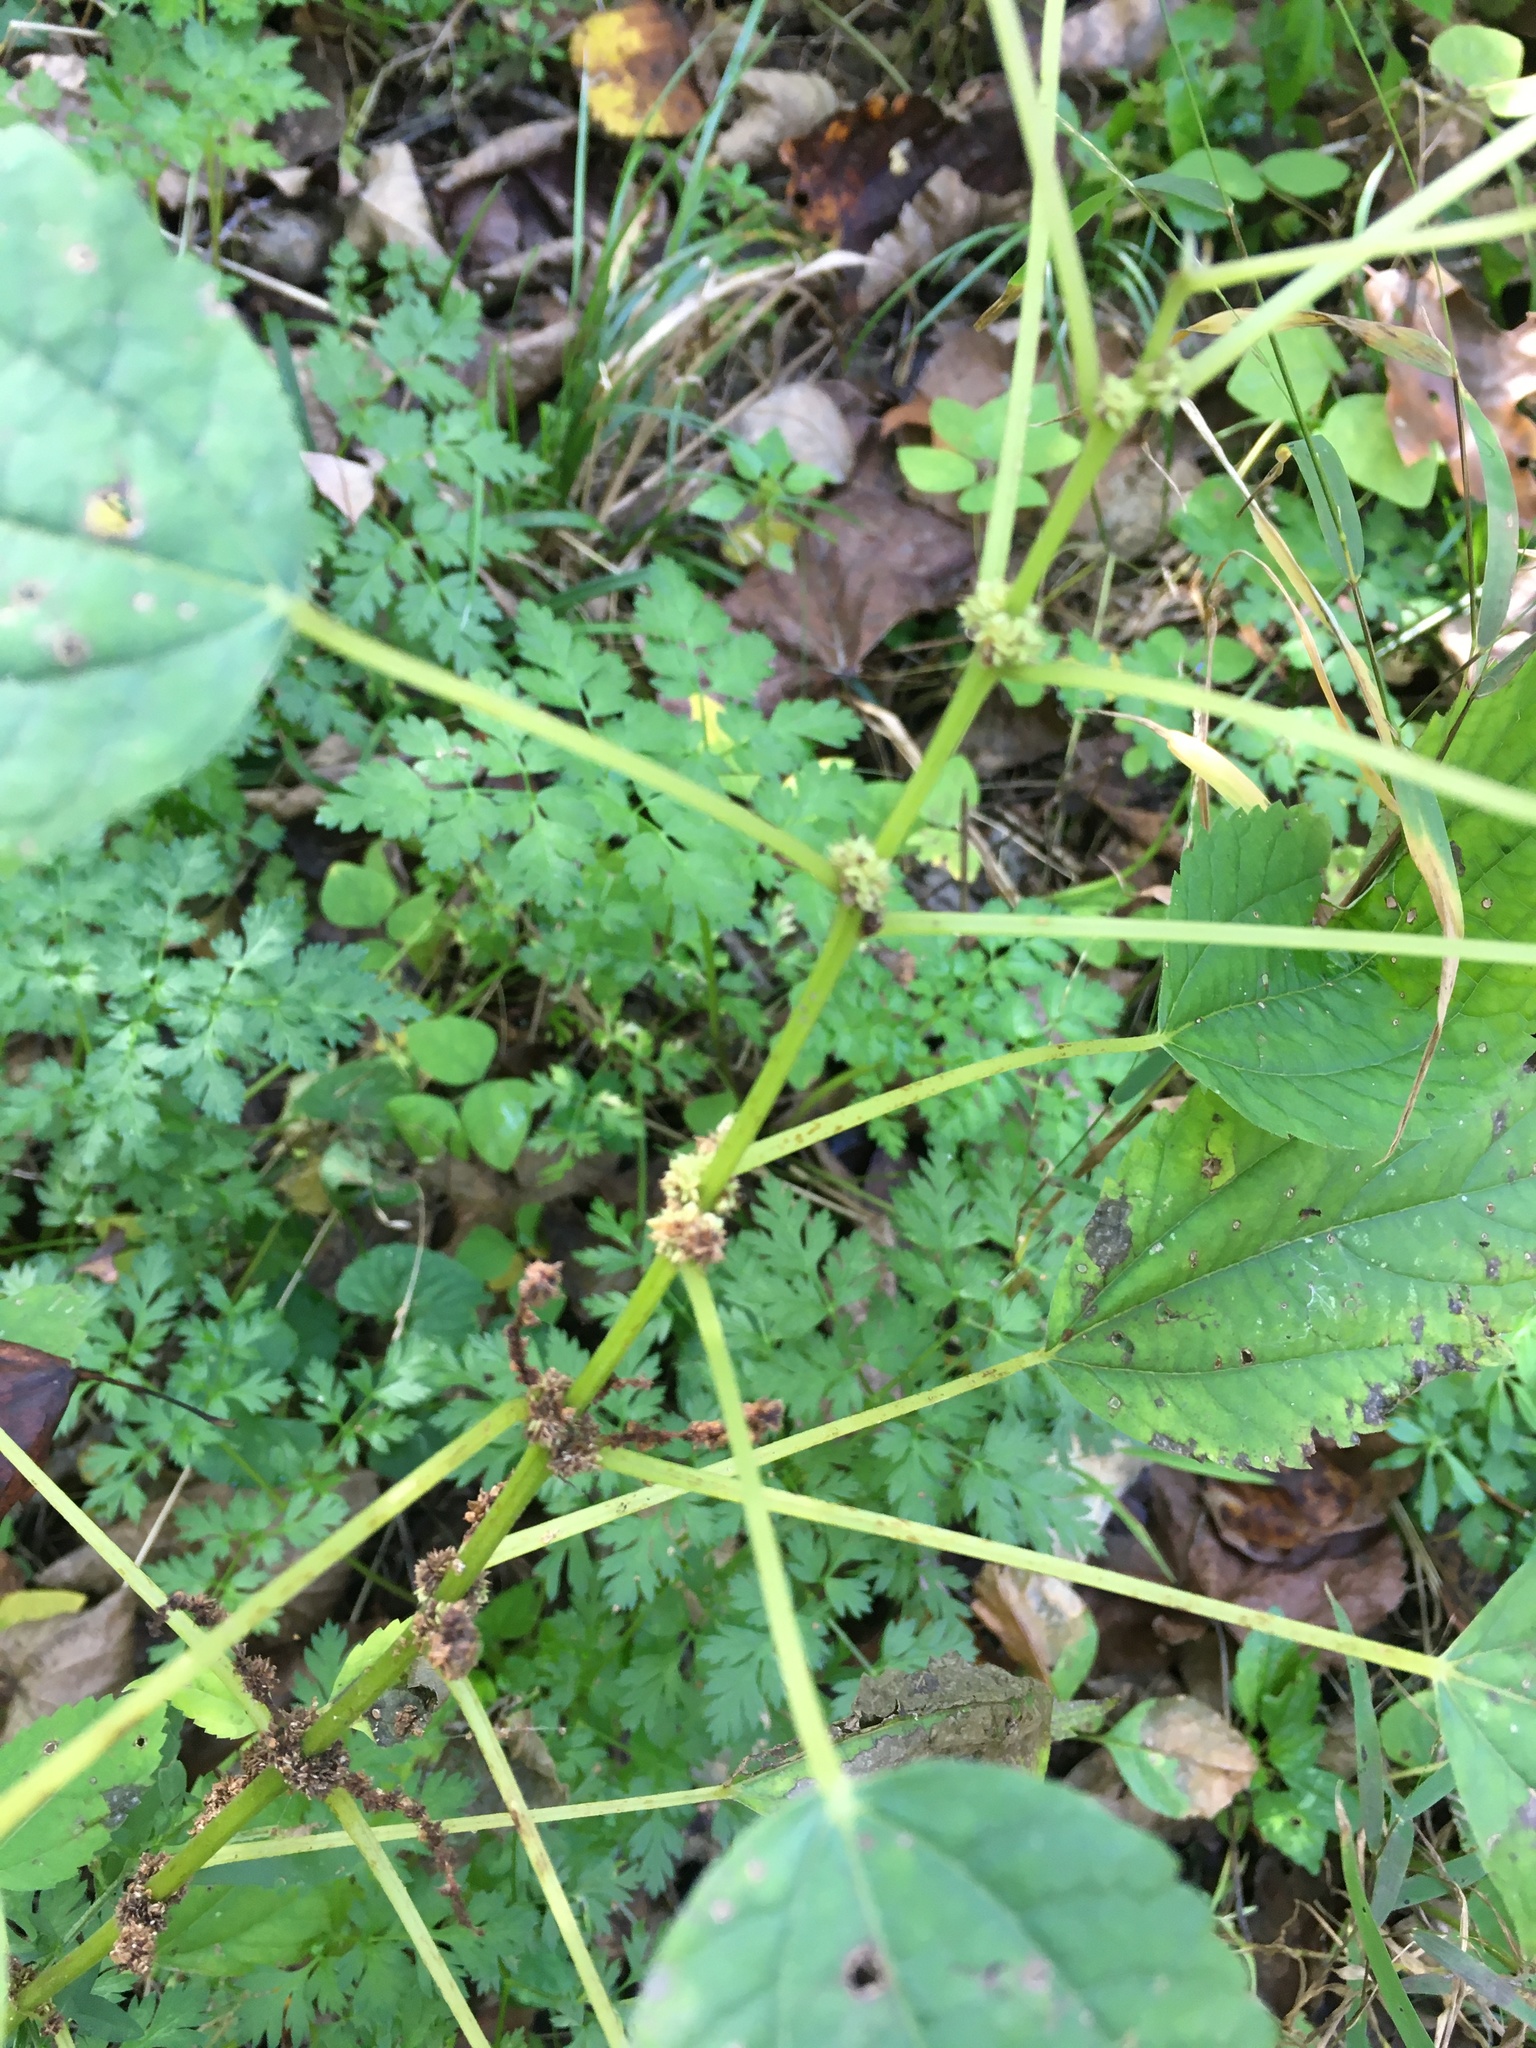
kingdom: Plantae
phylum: Tracheophyta
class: Magnoliopsida
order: Rosales
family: Urticaceae
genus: Boehmeria
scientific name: Boehmeria cylindrica
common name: Bog-hemp
